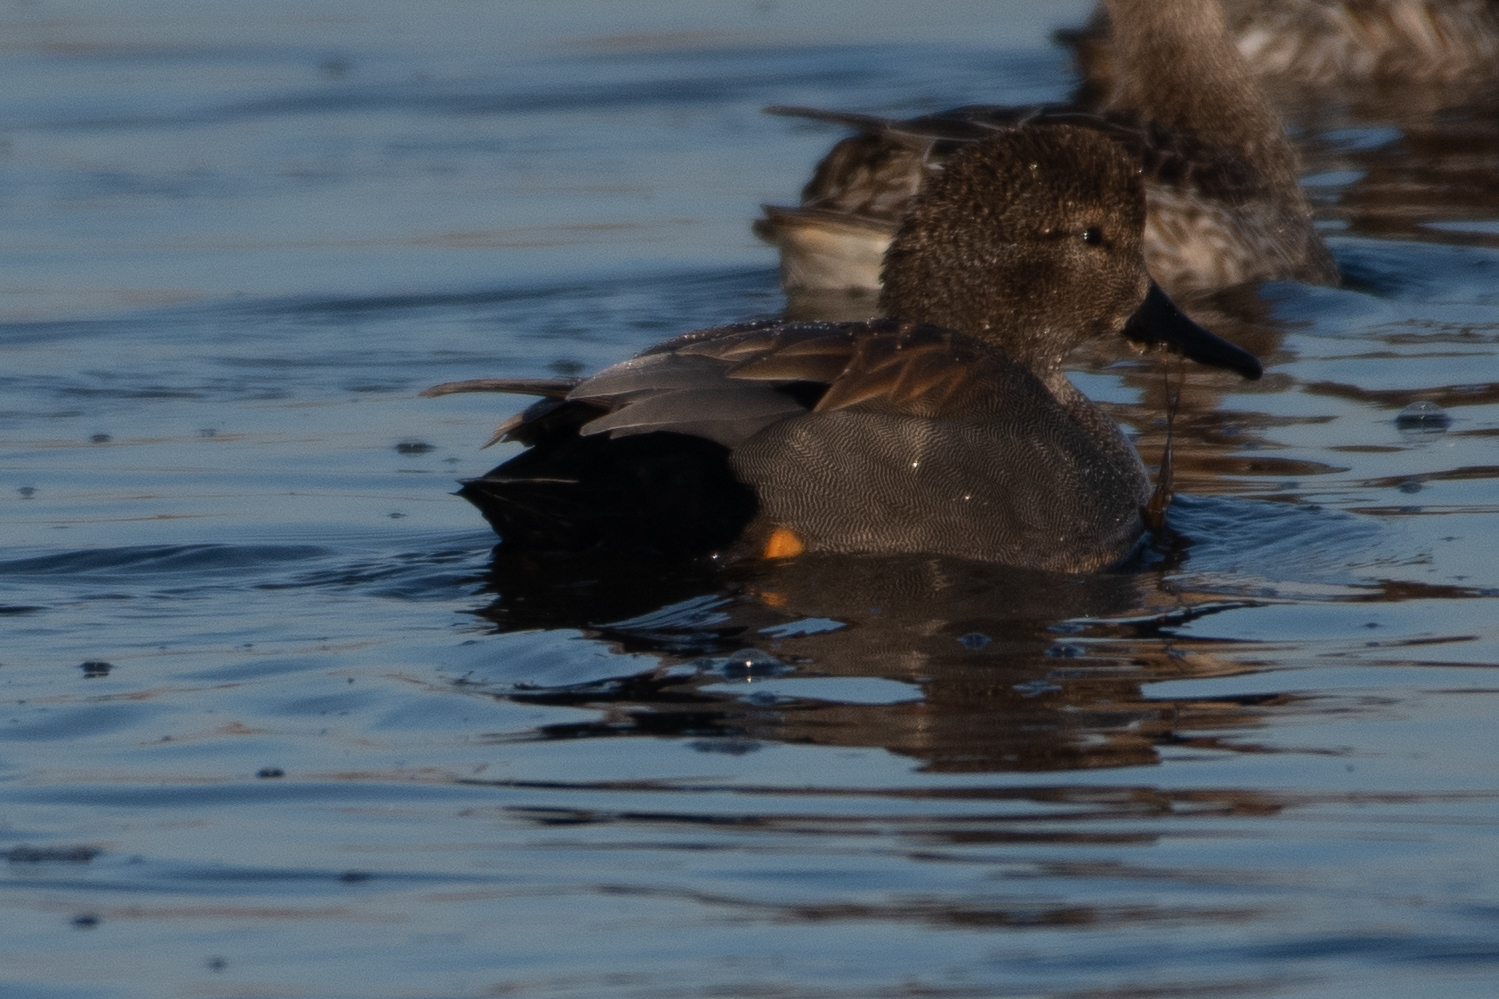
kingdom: Animalia
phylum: Chordata
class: Aves
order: Anseriformes
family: Anatidae
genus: Mareca
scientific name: Mareca strepera
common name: Gadwall
